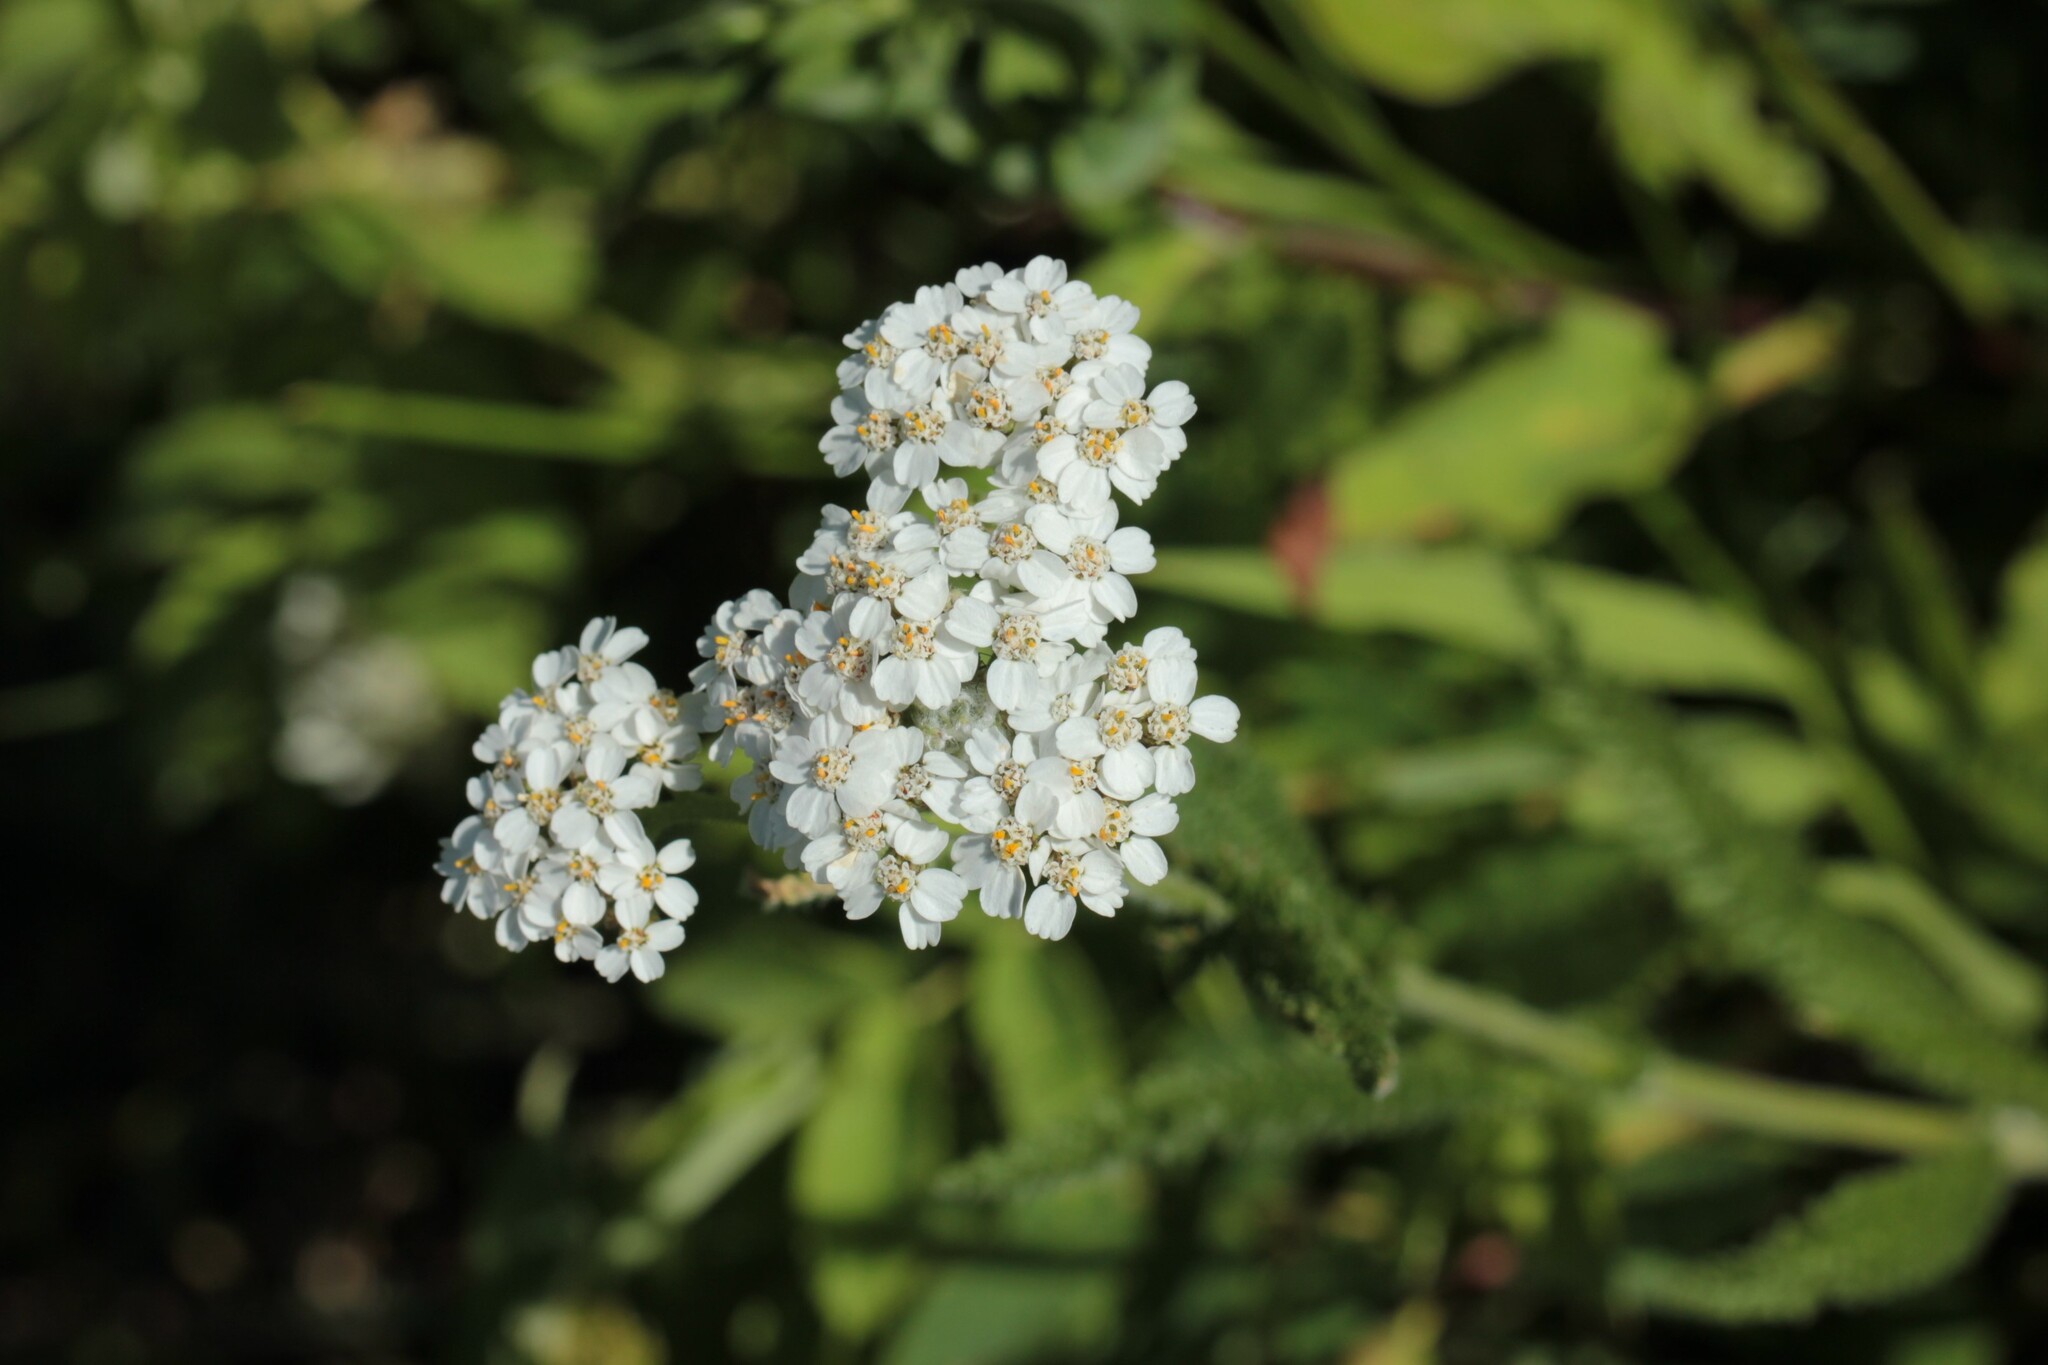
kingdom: Plantae
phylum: Tracheophyta
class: Magnoliopsida
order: Asterales
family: Asteraceae
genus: Achillea
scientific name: Achillea millefolium
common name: Yarrow
